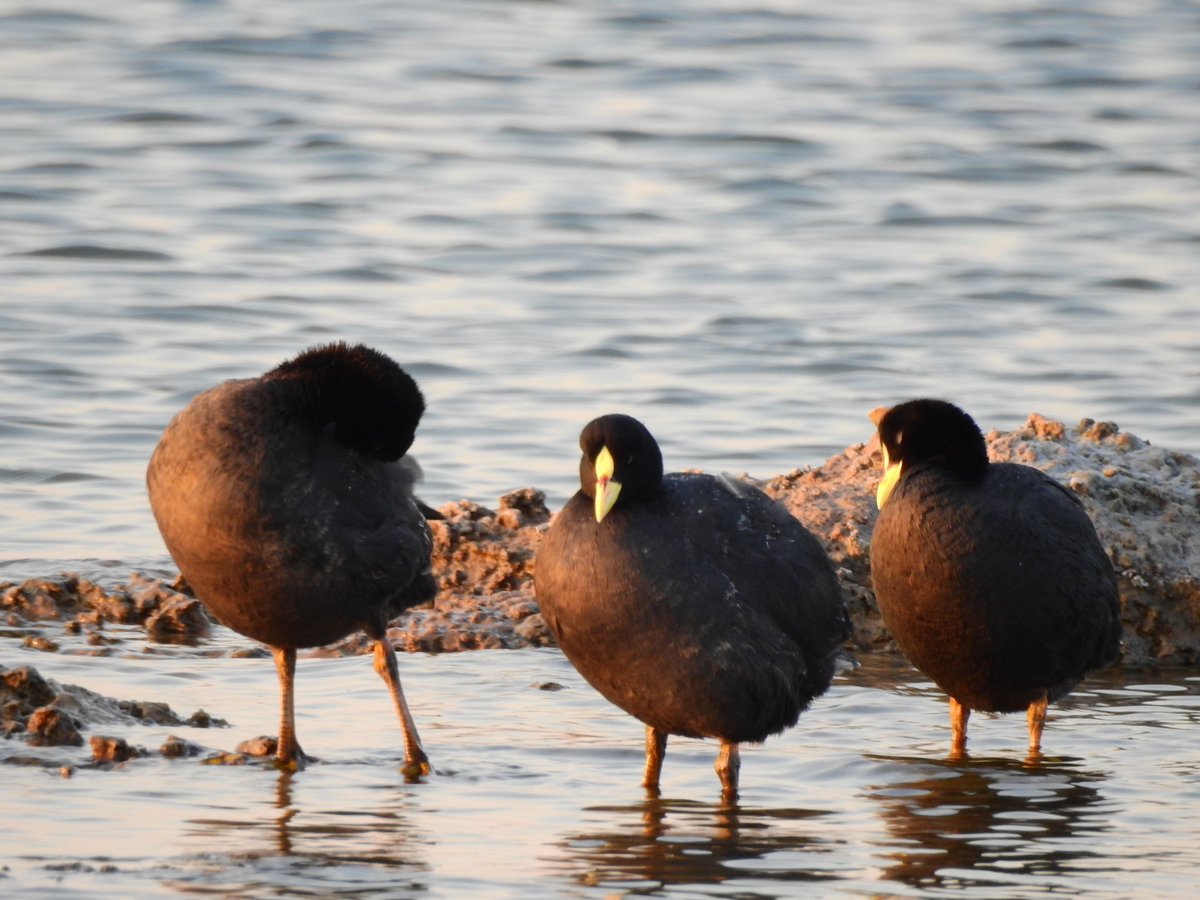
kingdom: Animalia
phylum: Chordata
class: Aves
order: Gruiformes
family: Rallidae
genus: Fulica
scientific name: Fulica armillata
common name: Red-gartered coot
